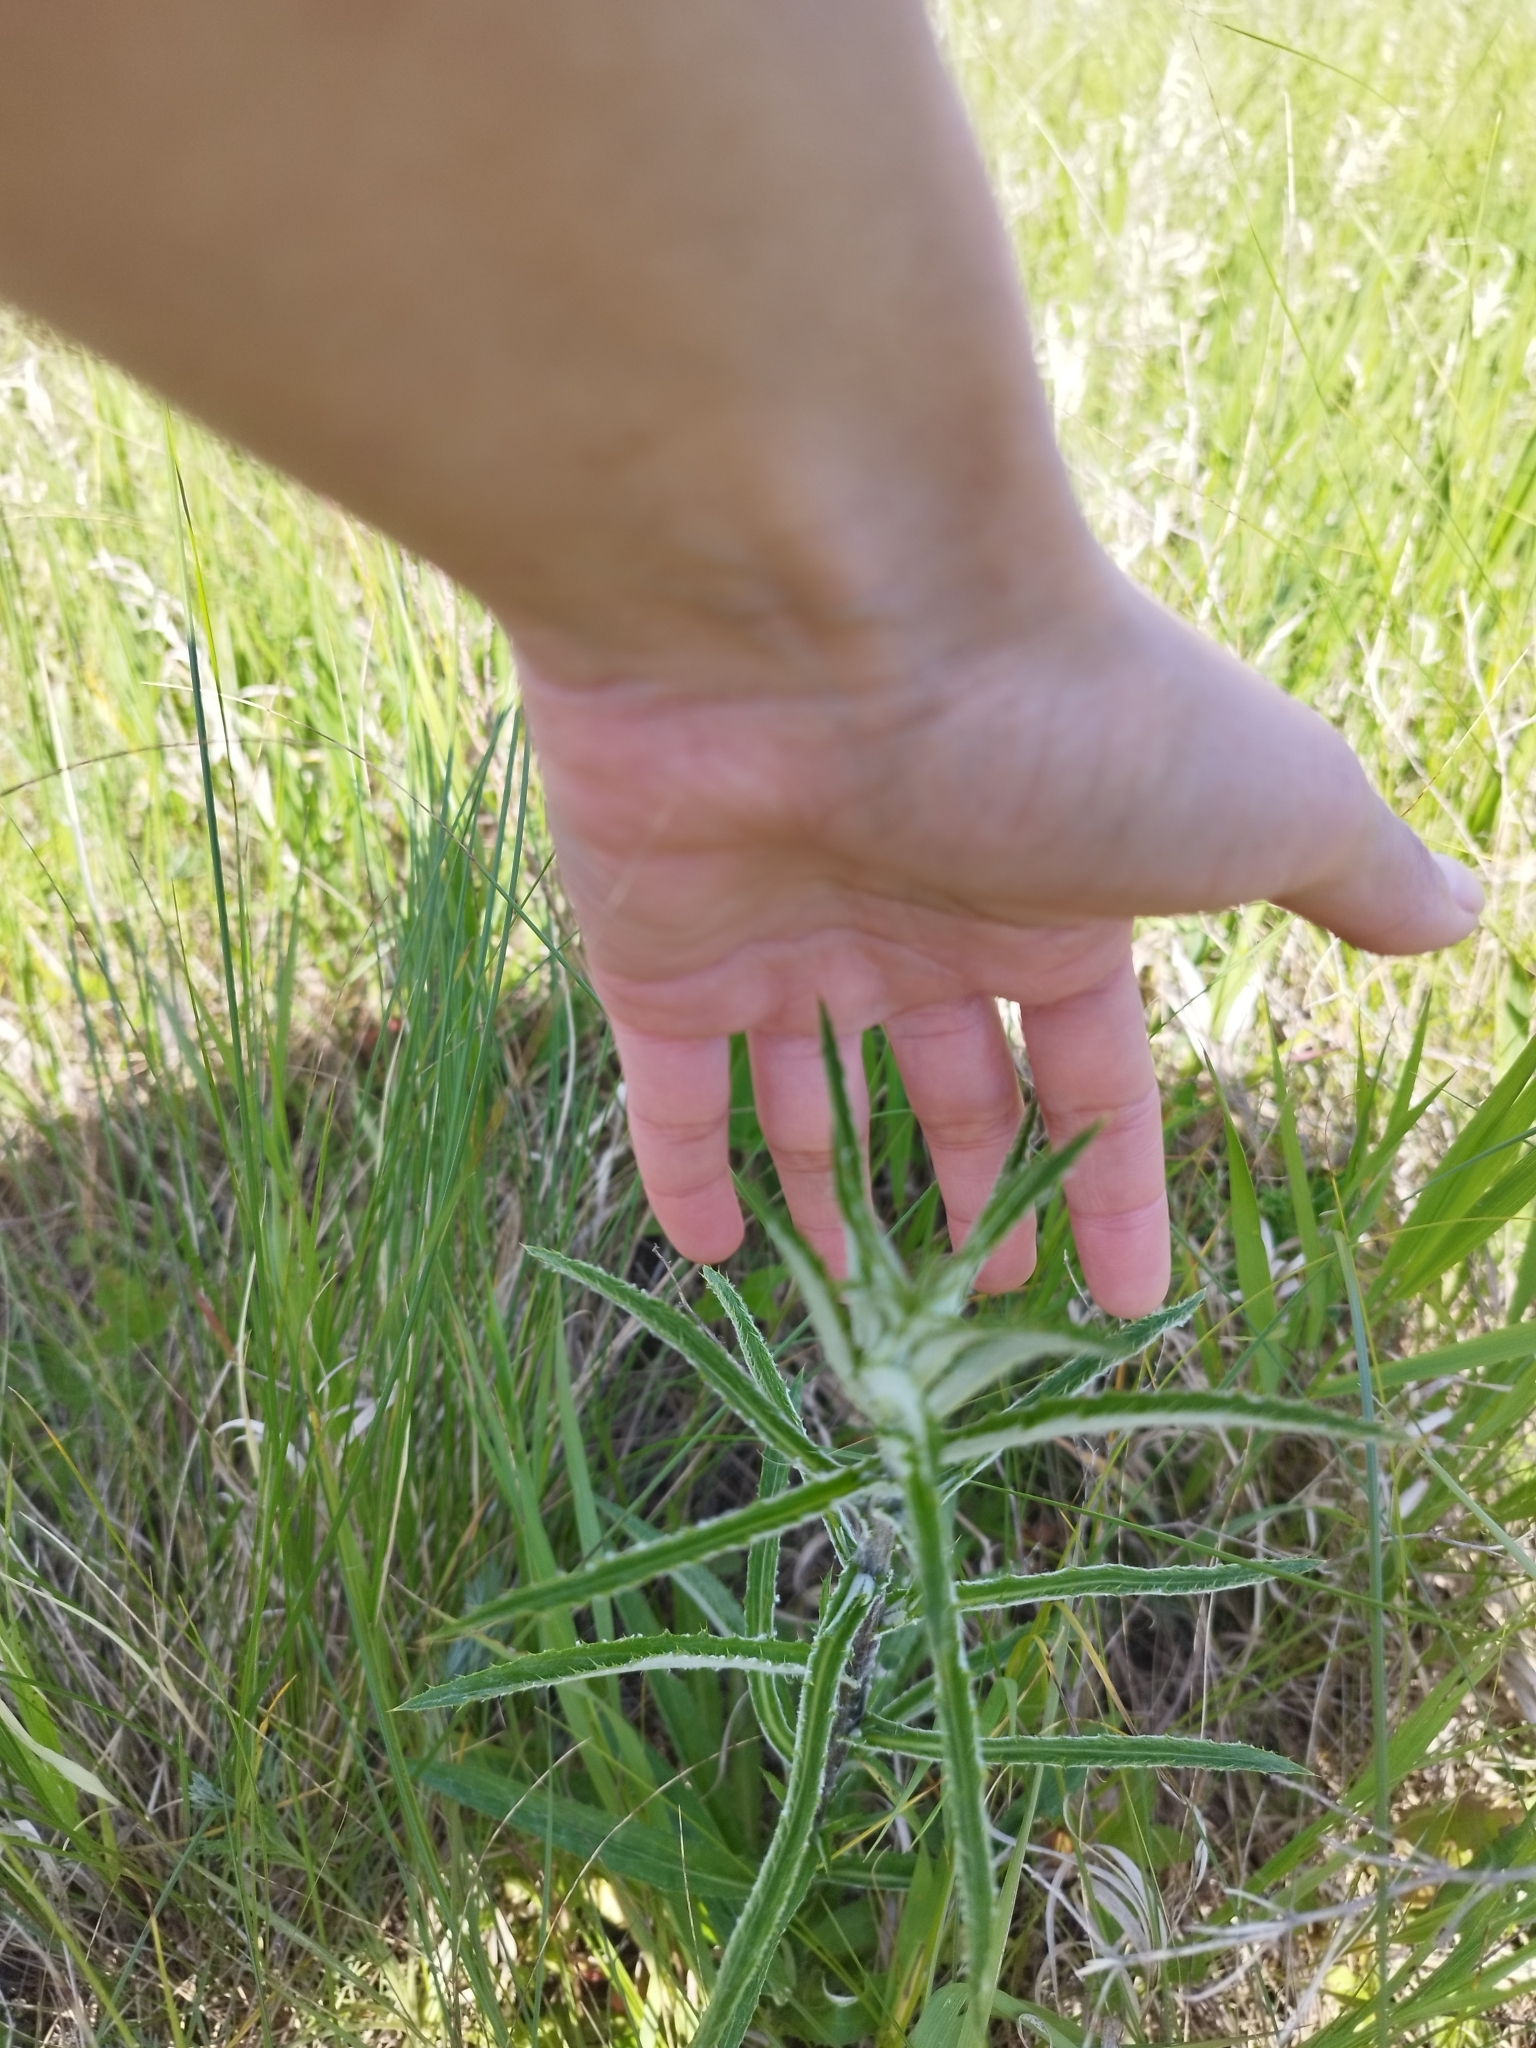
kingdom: Plantae
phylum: Tracheophyta
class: Magnoliopsida
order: Asterales
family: Asteraceae
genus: Carlina
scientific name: Carlina biebersteinii
